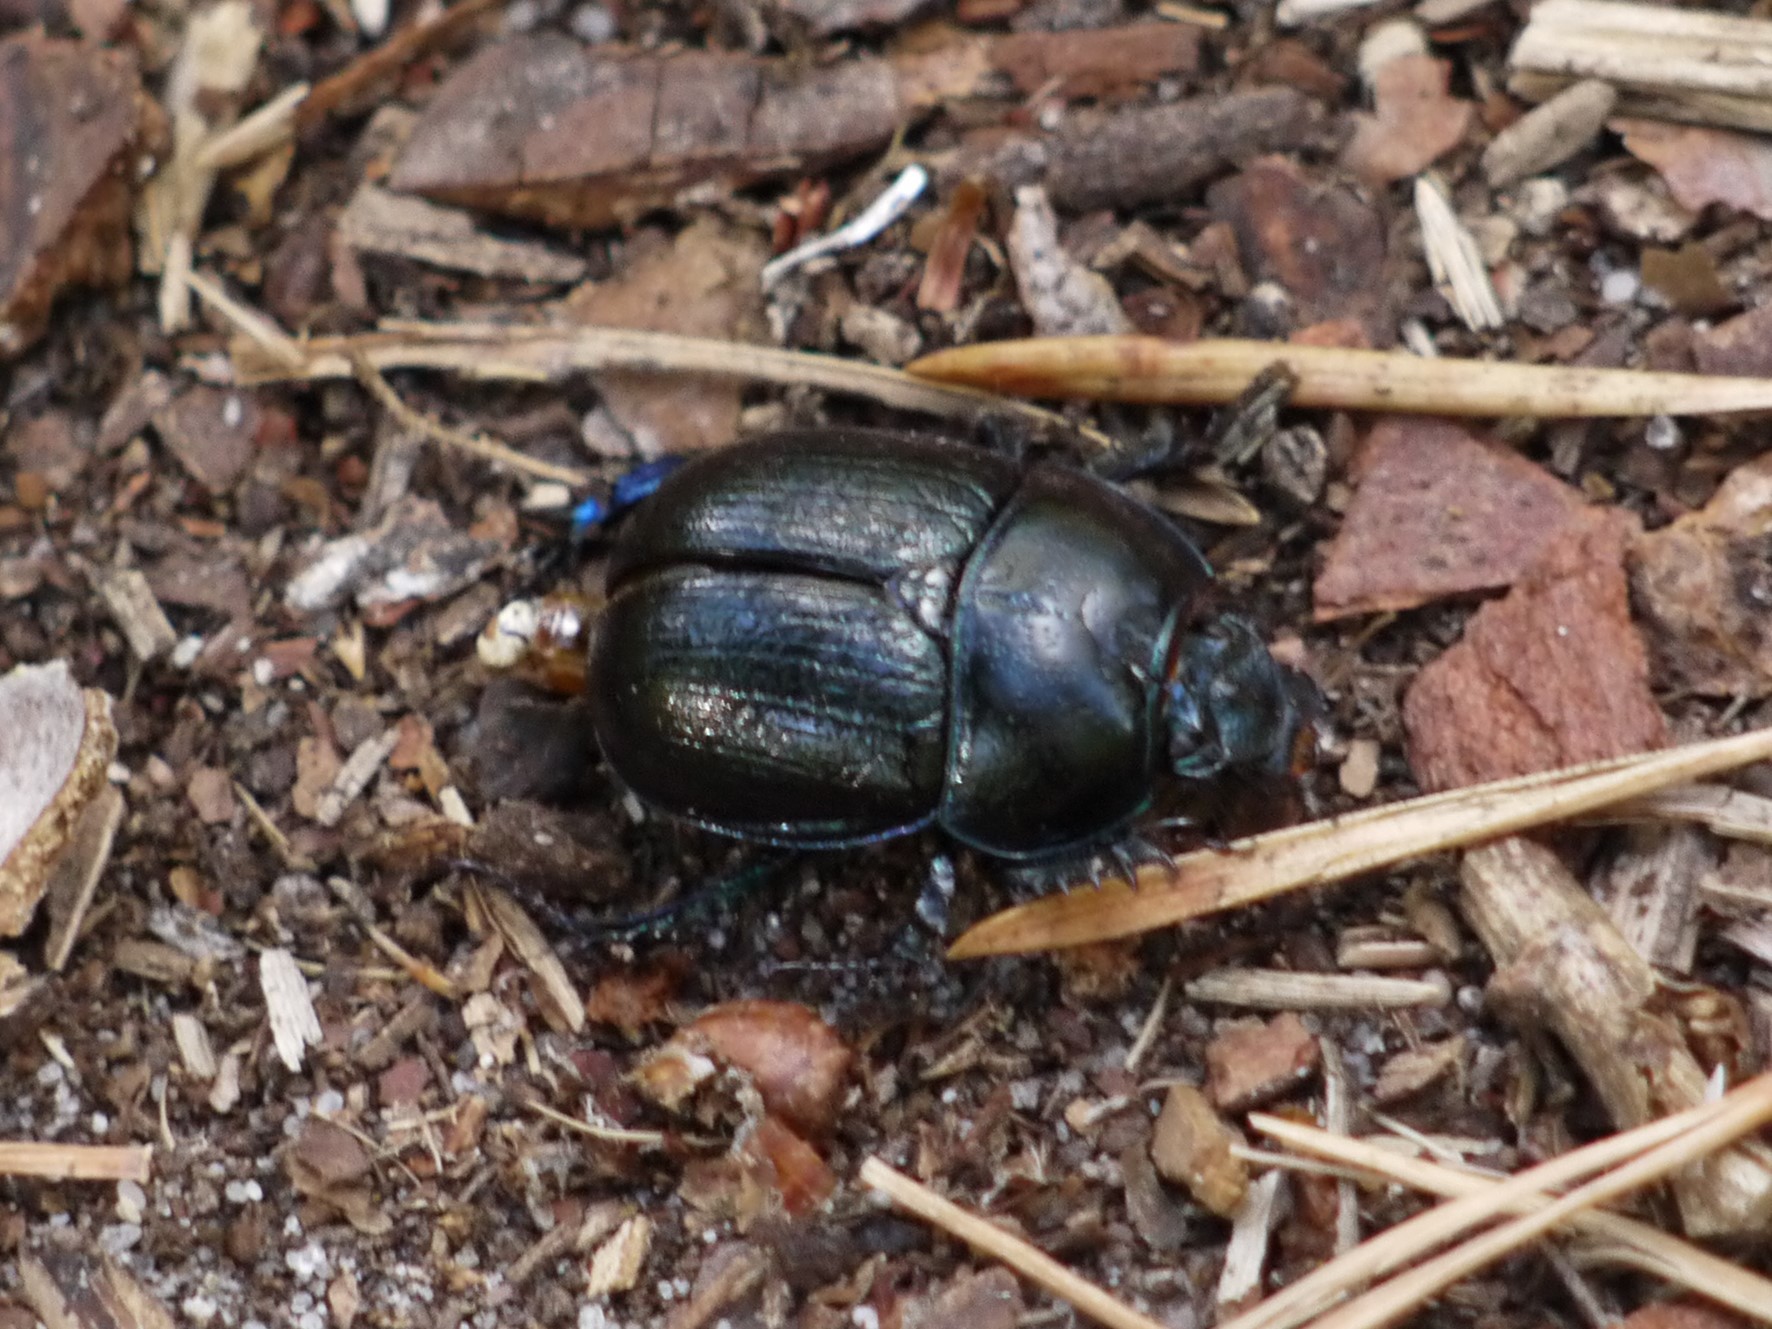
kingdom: Animalia
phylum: Arthropoda
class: Insecta
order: Coleoptera
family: Geotrupidae
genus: Anoplotrupes
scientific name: Anoplotrupes stercorosus
